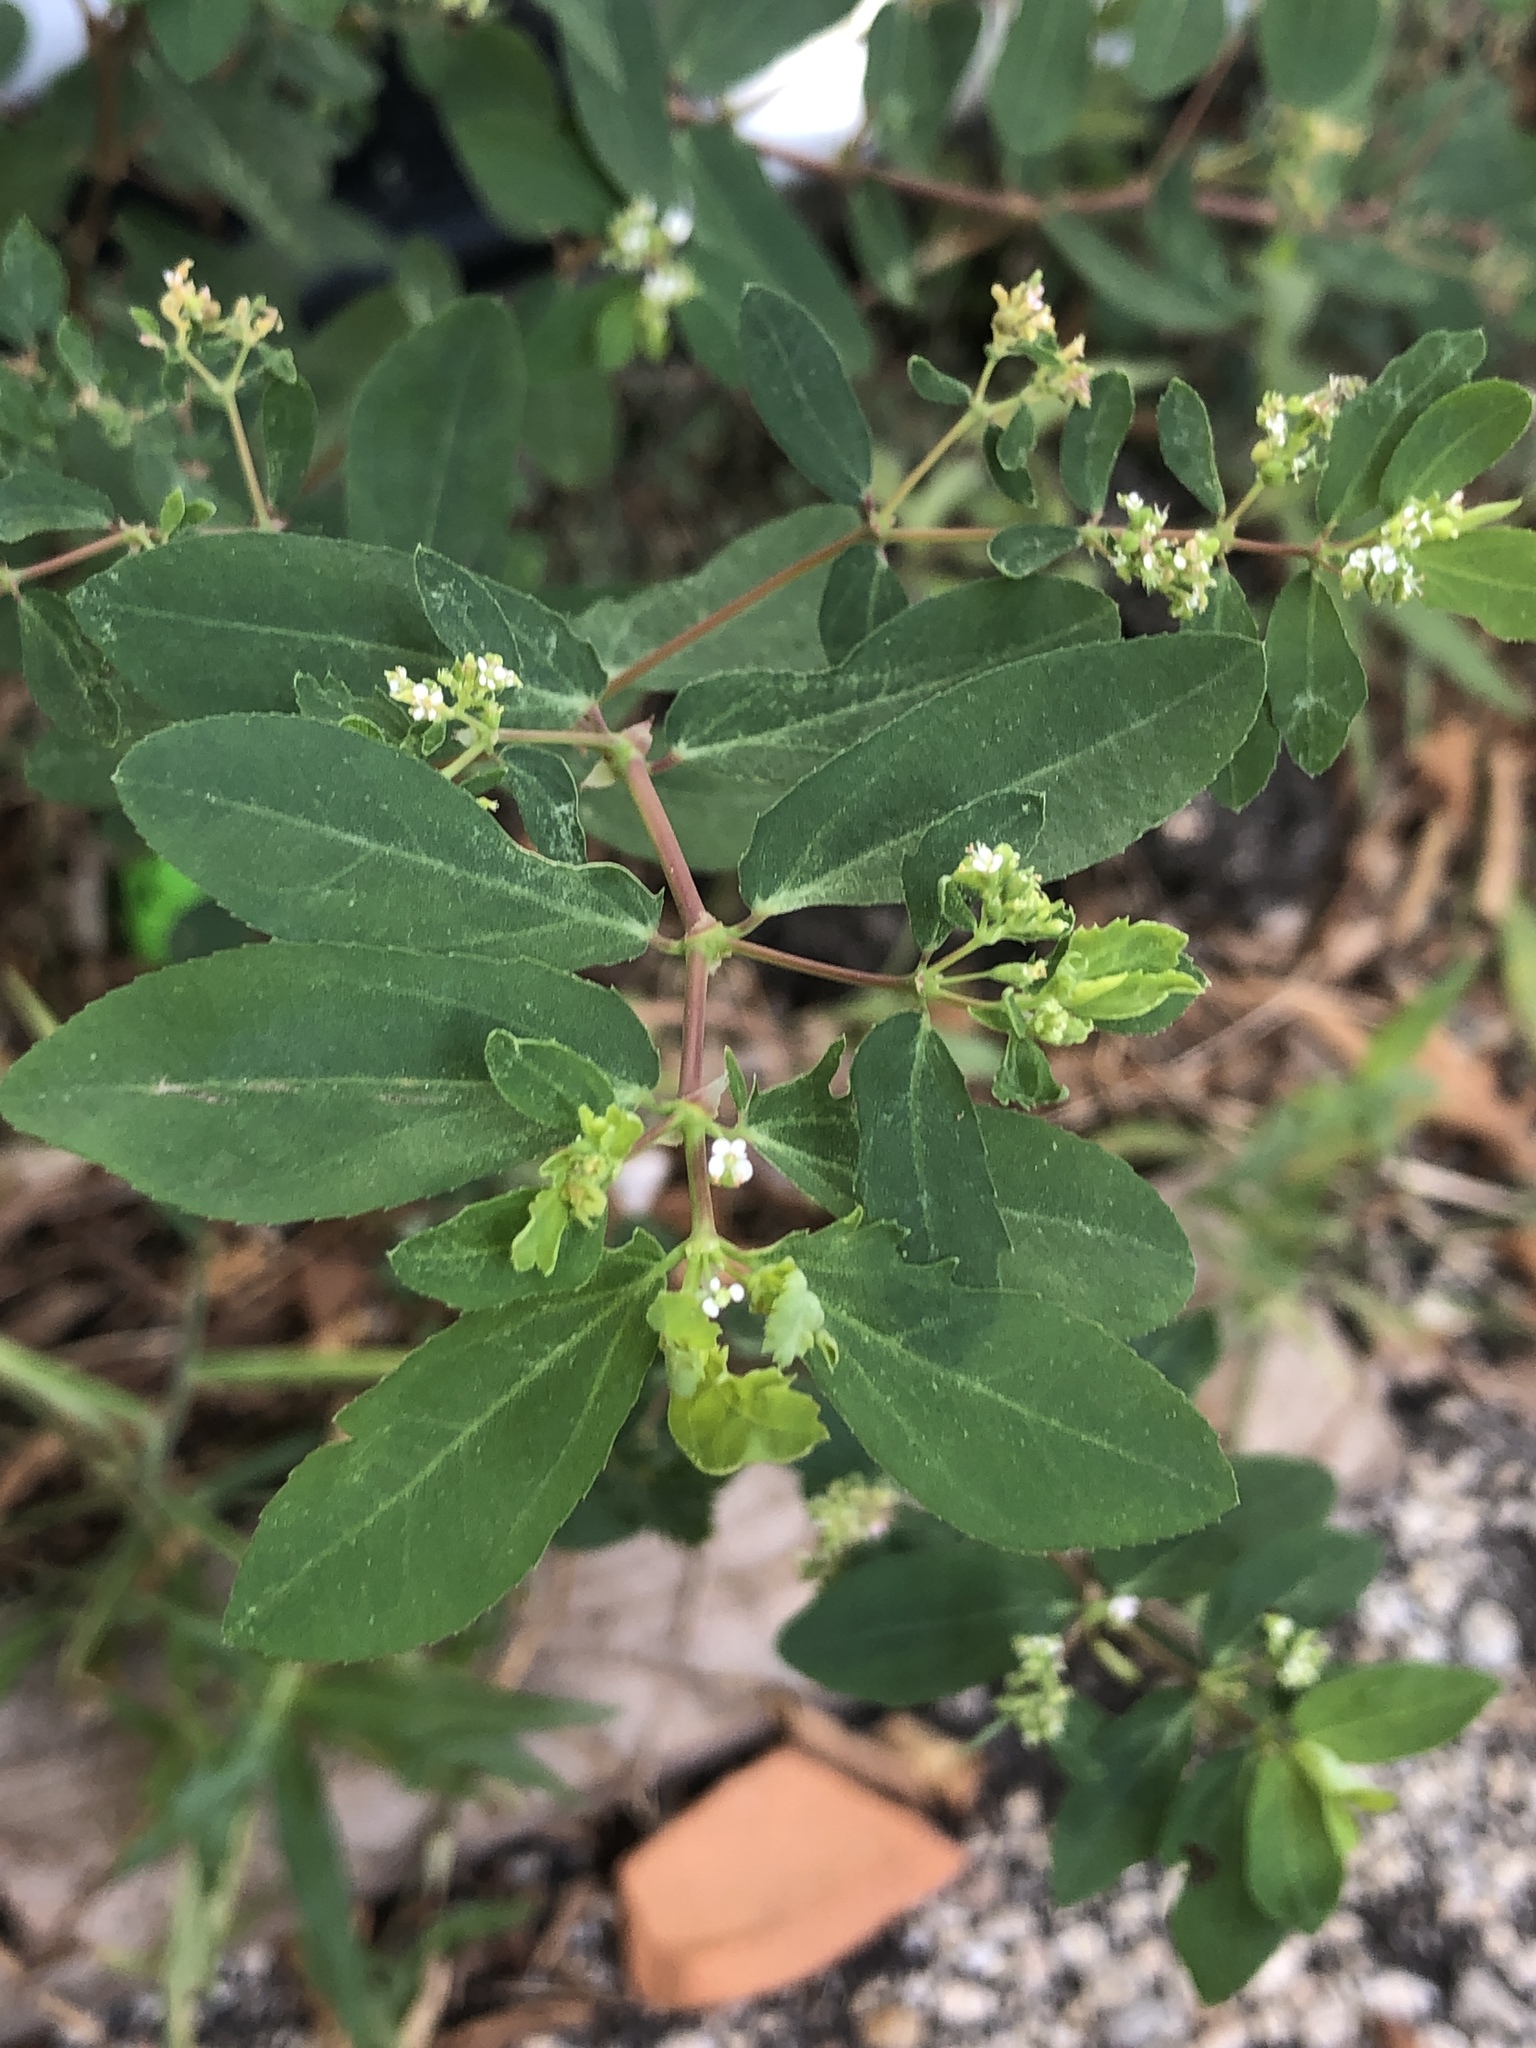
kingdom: Plantae
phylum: Tracheophyta
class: Magnoliopsida
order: Malpighiales
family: Euphorbiaceae
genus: Euphorbia
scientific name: Euphorbia hypericifolia
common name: Graceful sandmat
